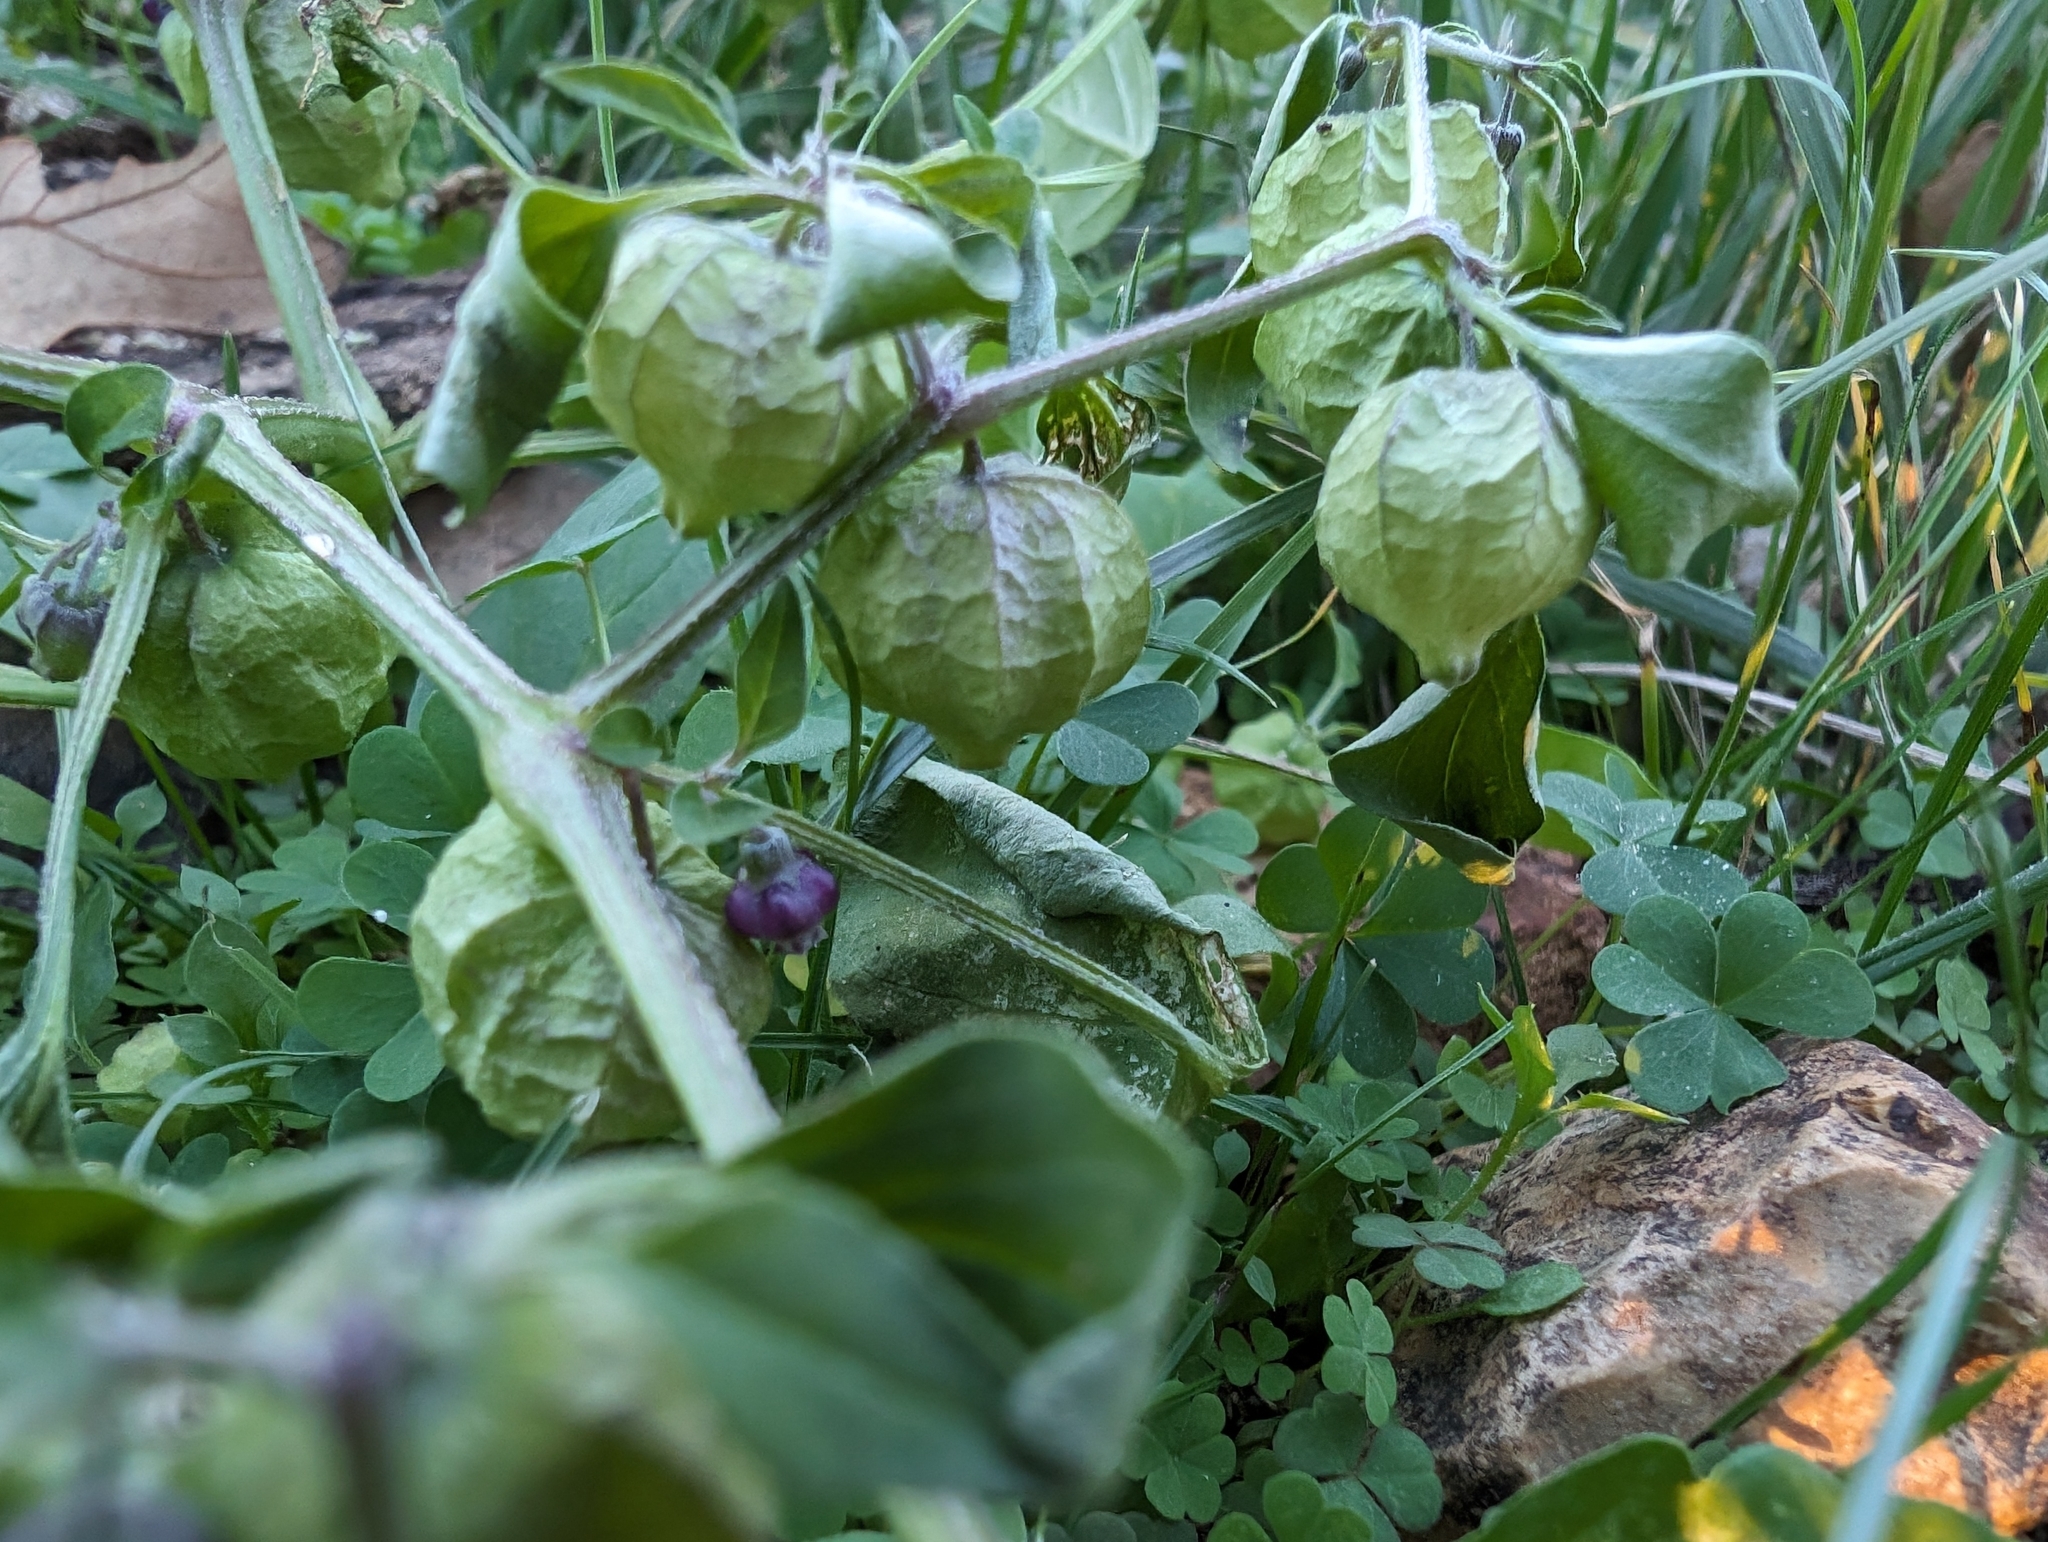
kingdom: Plantae
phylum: Tracheophyta
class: Magnoliopsida
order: Solanales
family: Solanaceae
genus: Physalis
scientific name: Physalis solanacea
